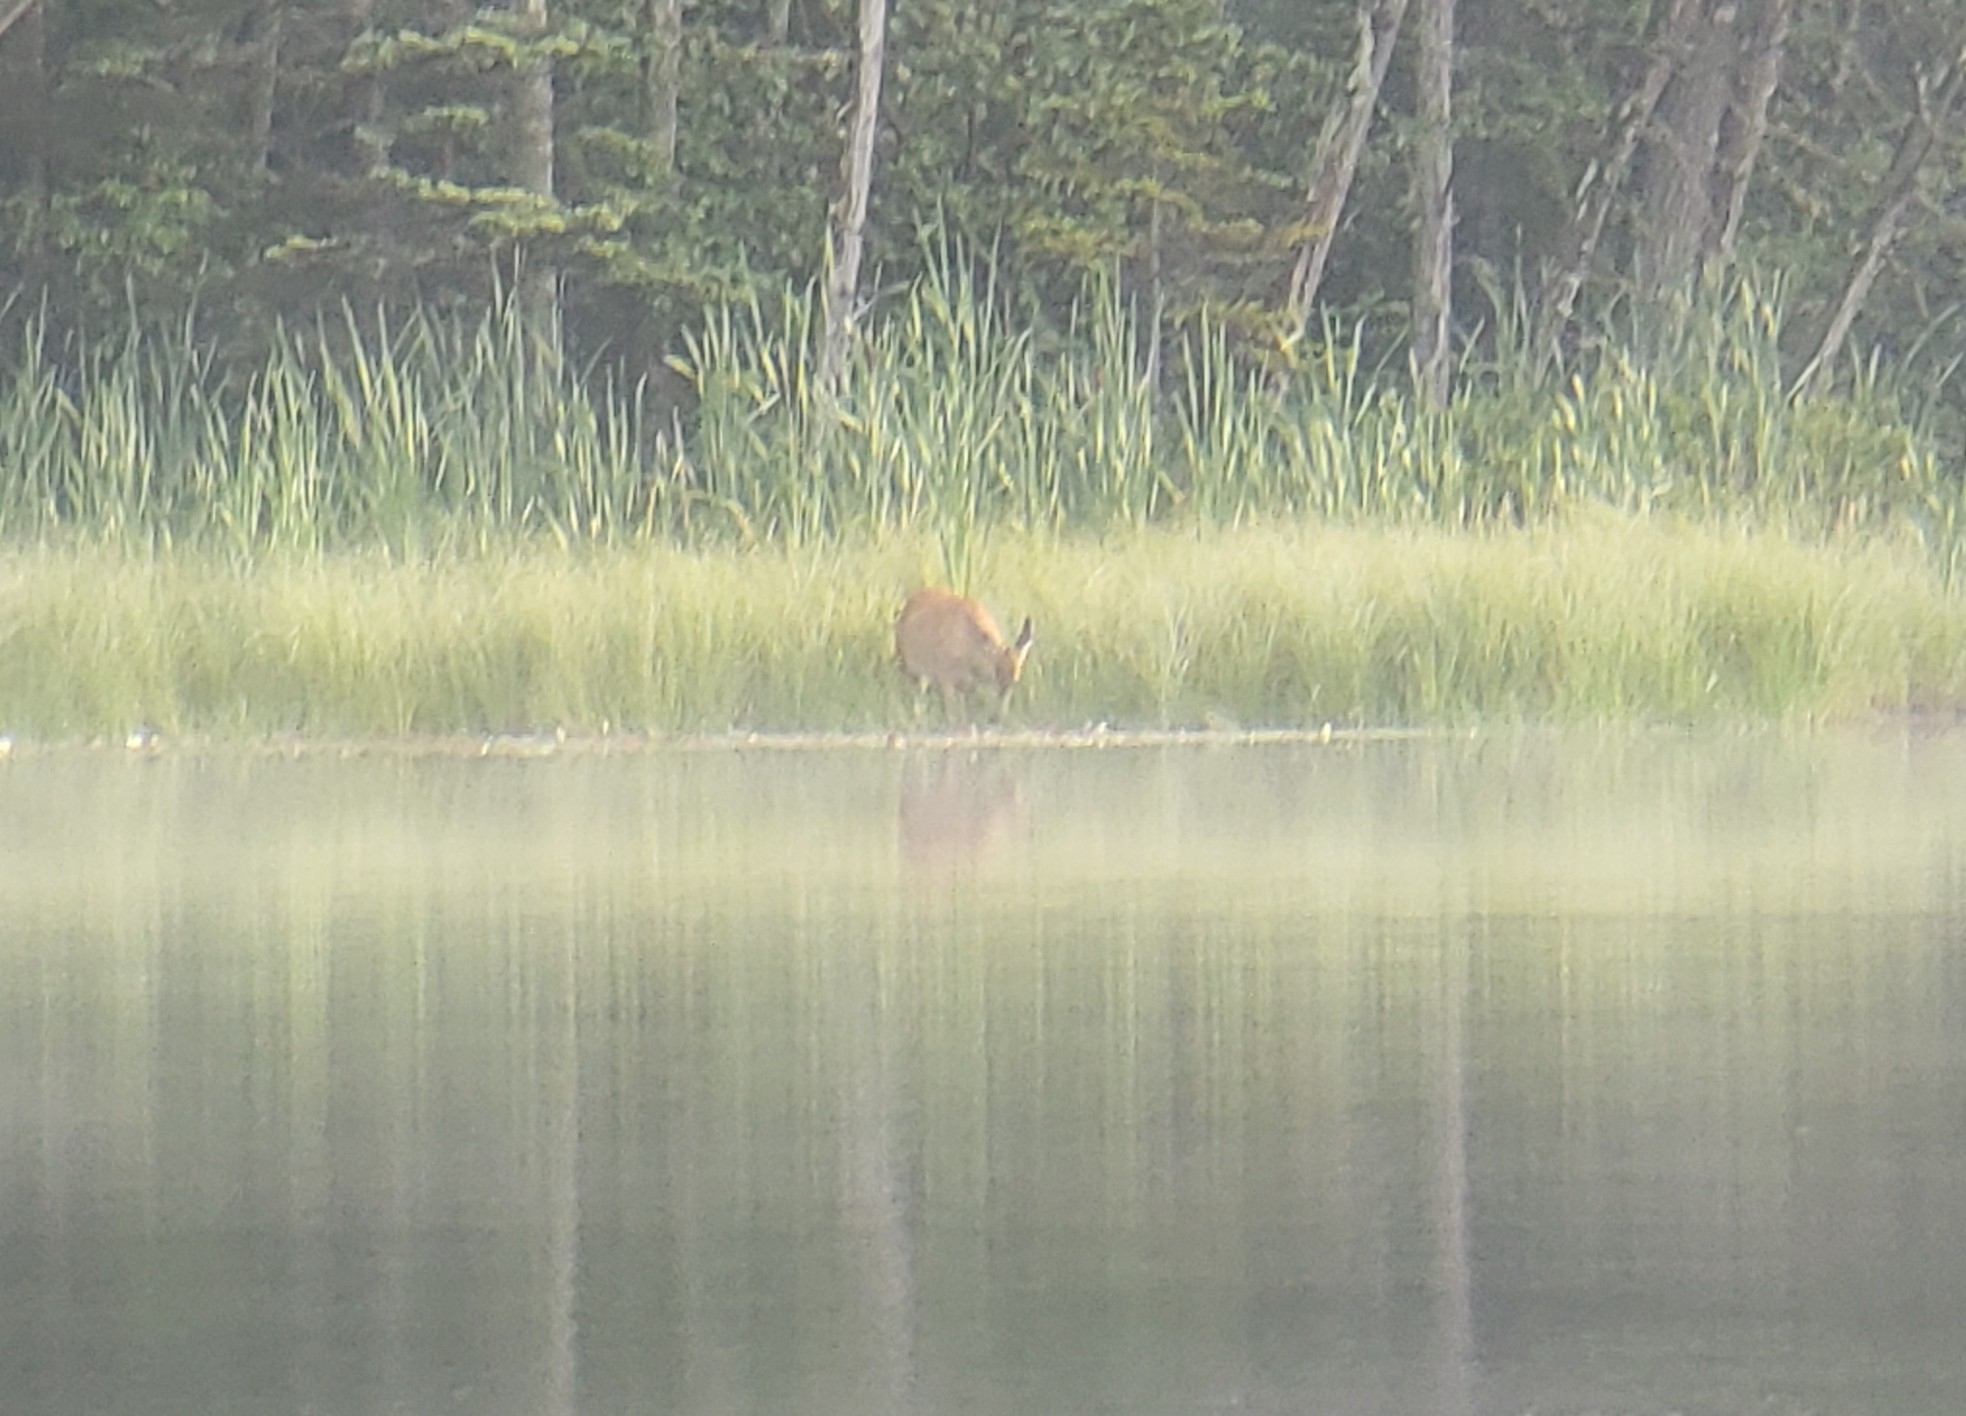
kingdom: Animalia
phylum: Chordata
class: Mammalia
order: Artiodactyla
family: Cervidae
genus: Odocoileus
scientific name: Odocoileus virginianus
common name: White-tailed deer
